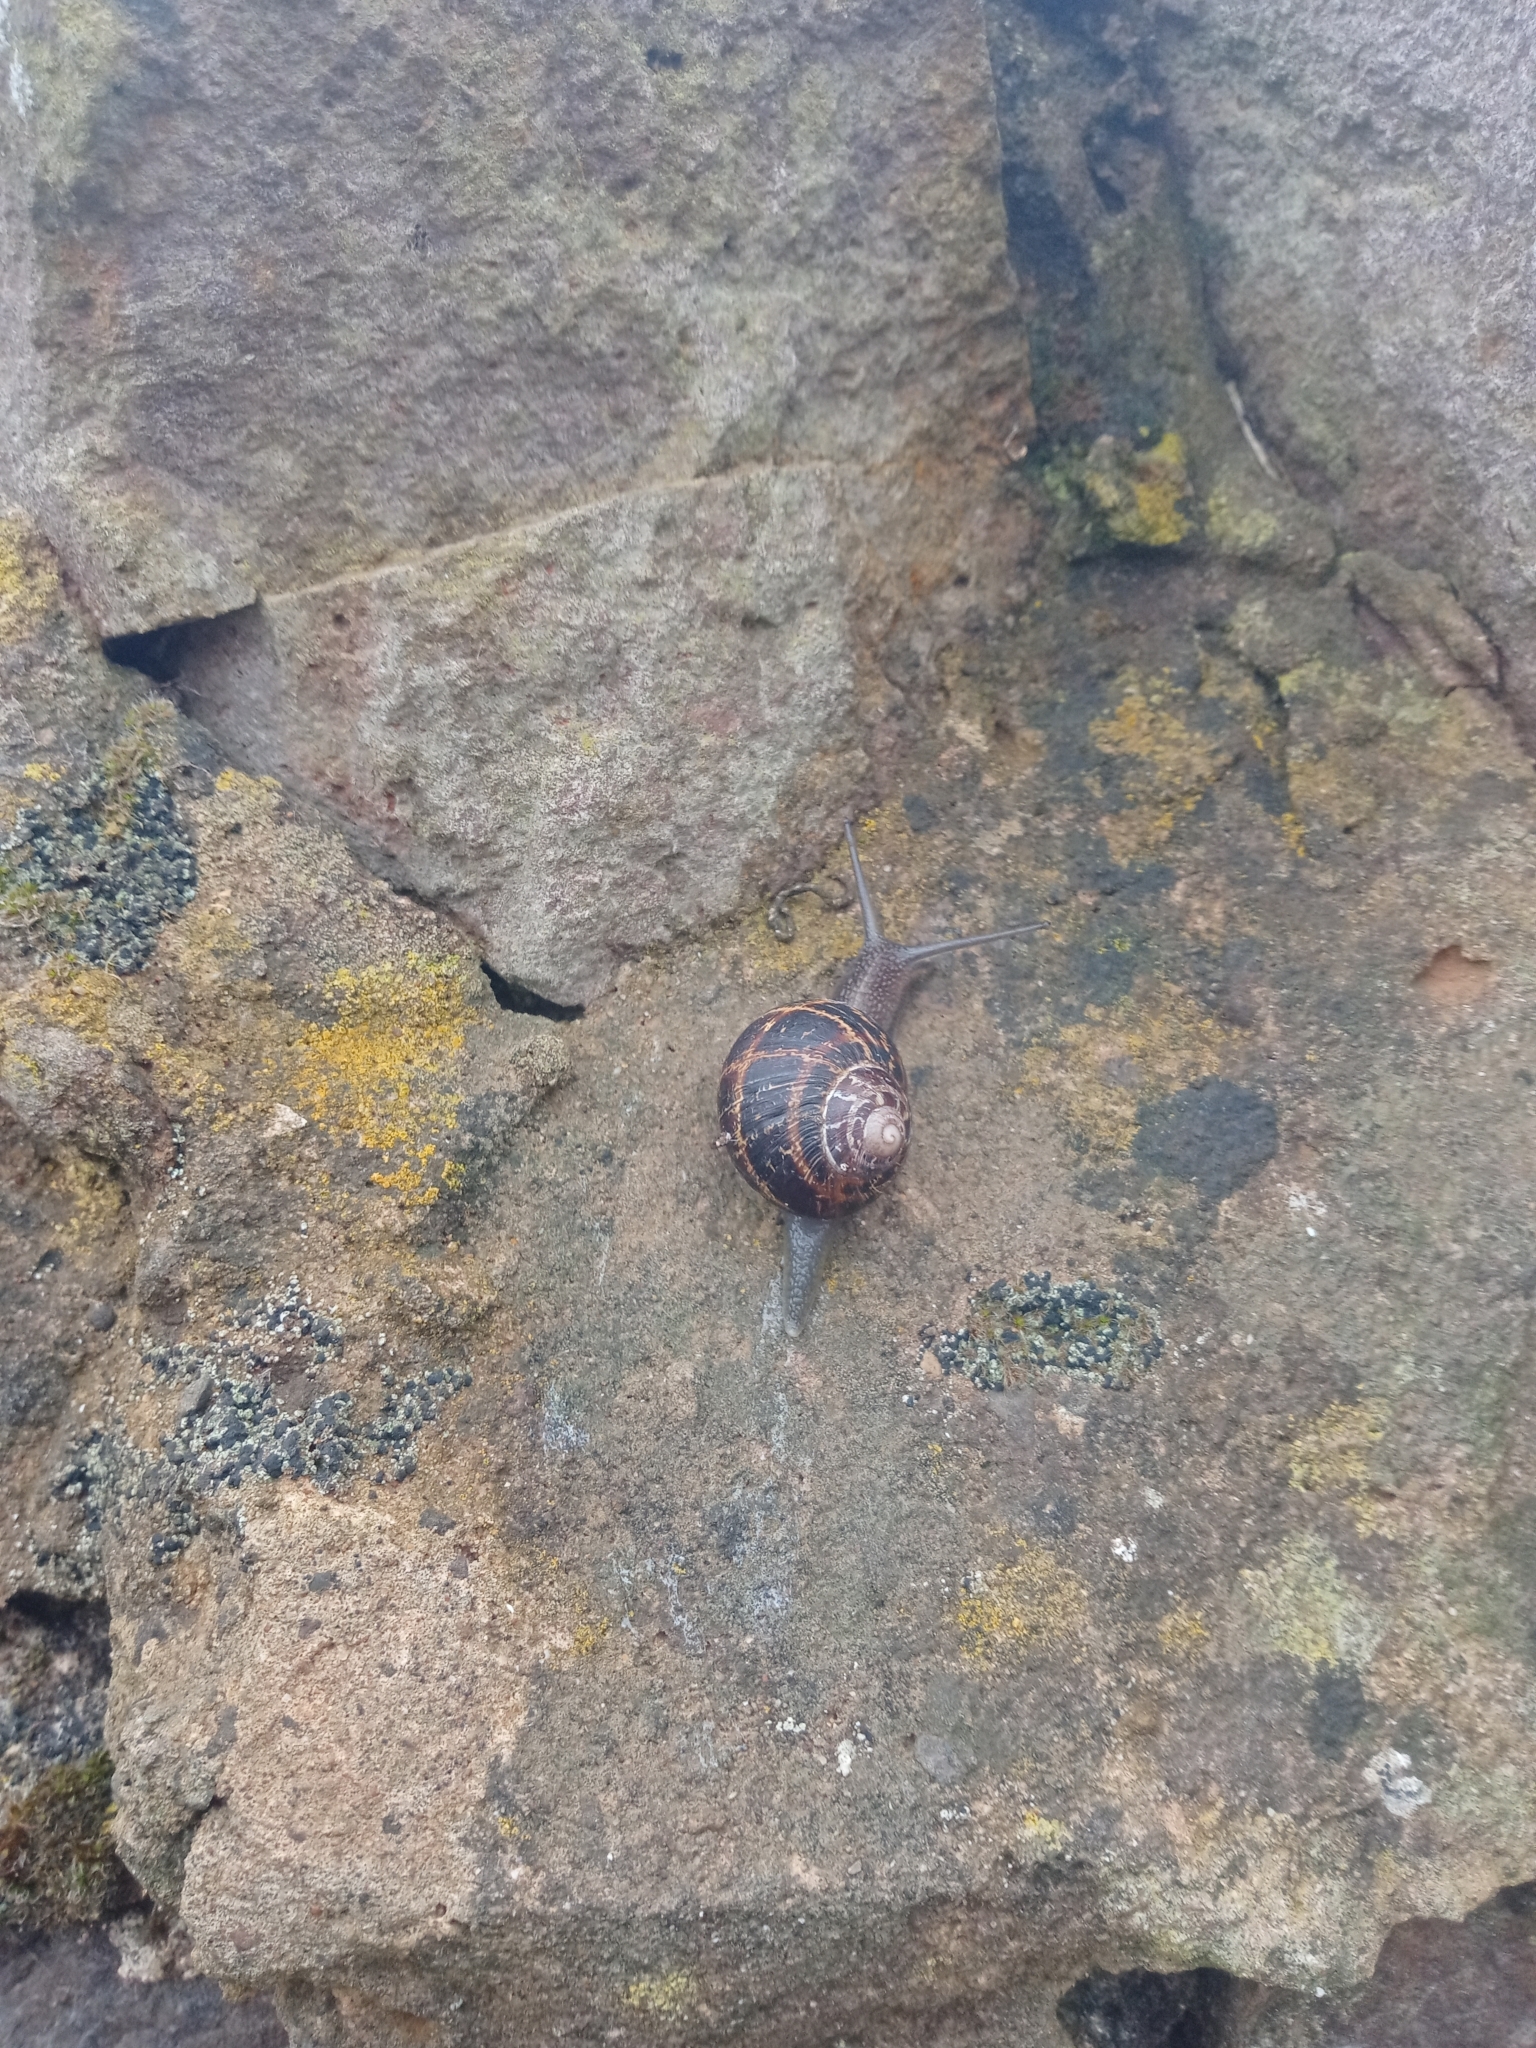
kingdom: Animalia
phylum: Mollusca
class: Gastropoda
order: Stylommatophora
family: Helicidae
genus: Cornu
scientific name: Cornu aspersum
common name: Brown garden snail
